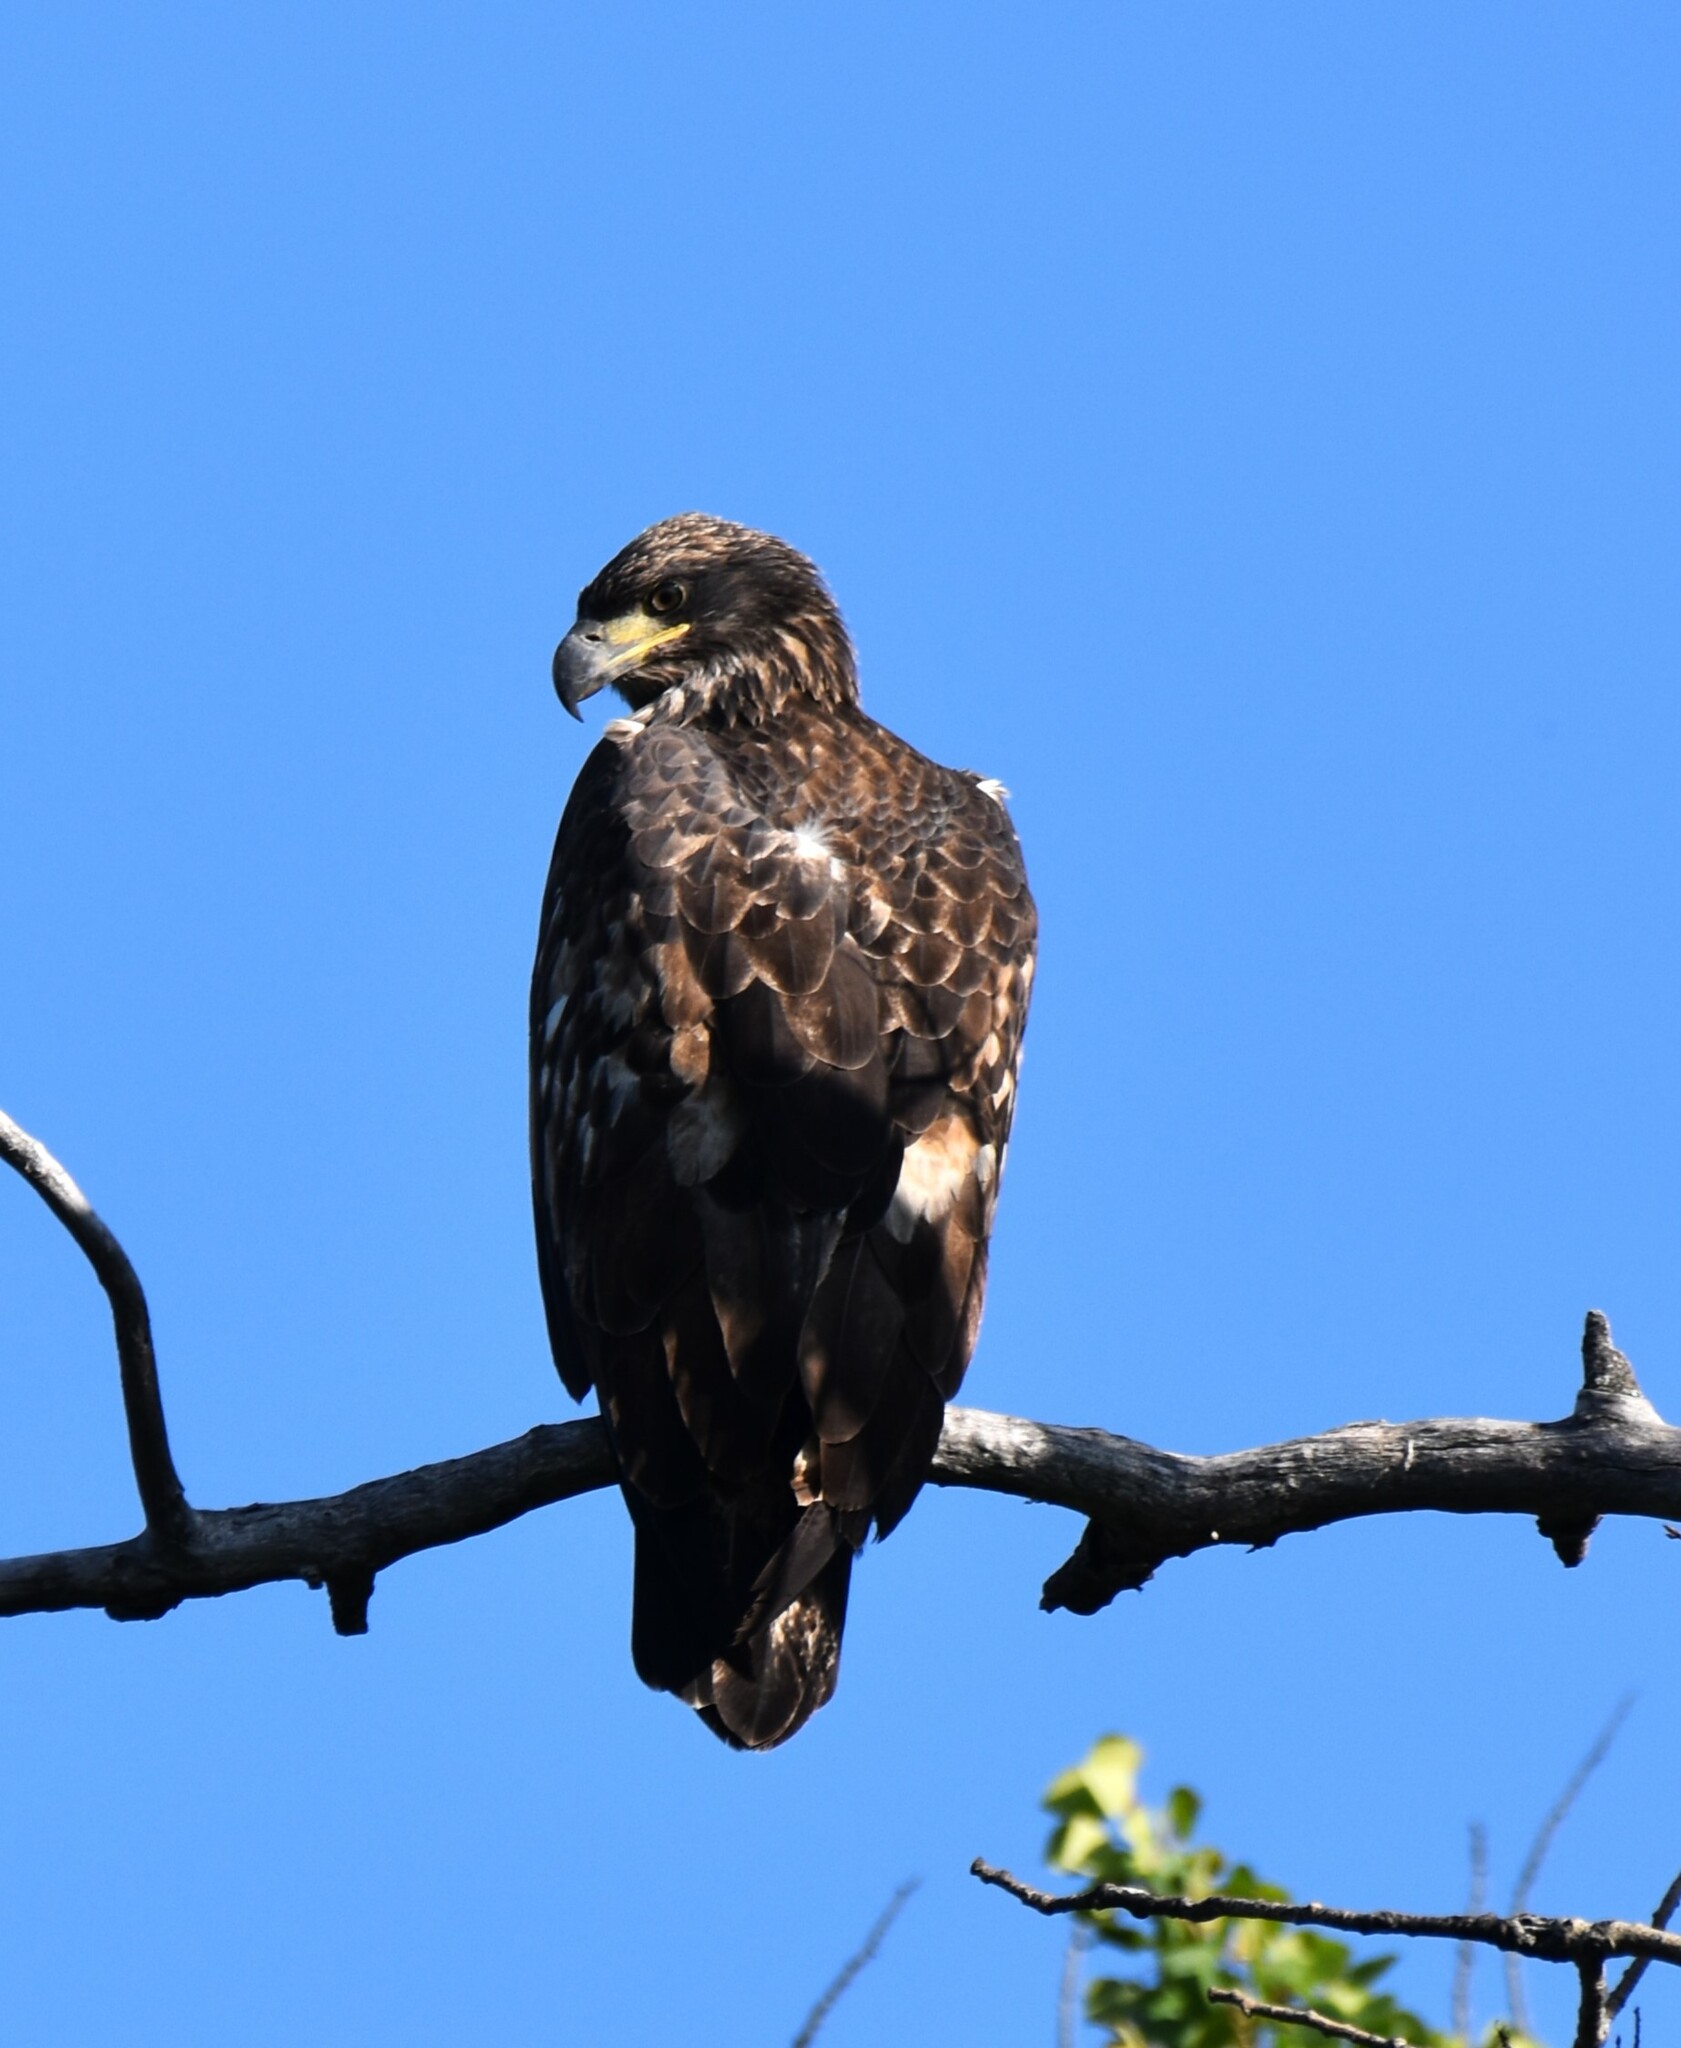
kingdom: Animalia
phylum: Chordata
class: Aves
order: Accipitriformes
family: Accipitridae
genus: Haliaeetus
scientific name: Haliaeetus leucocephalus
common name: Bald eagle
